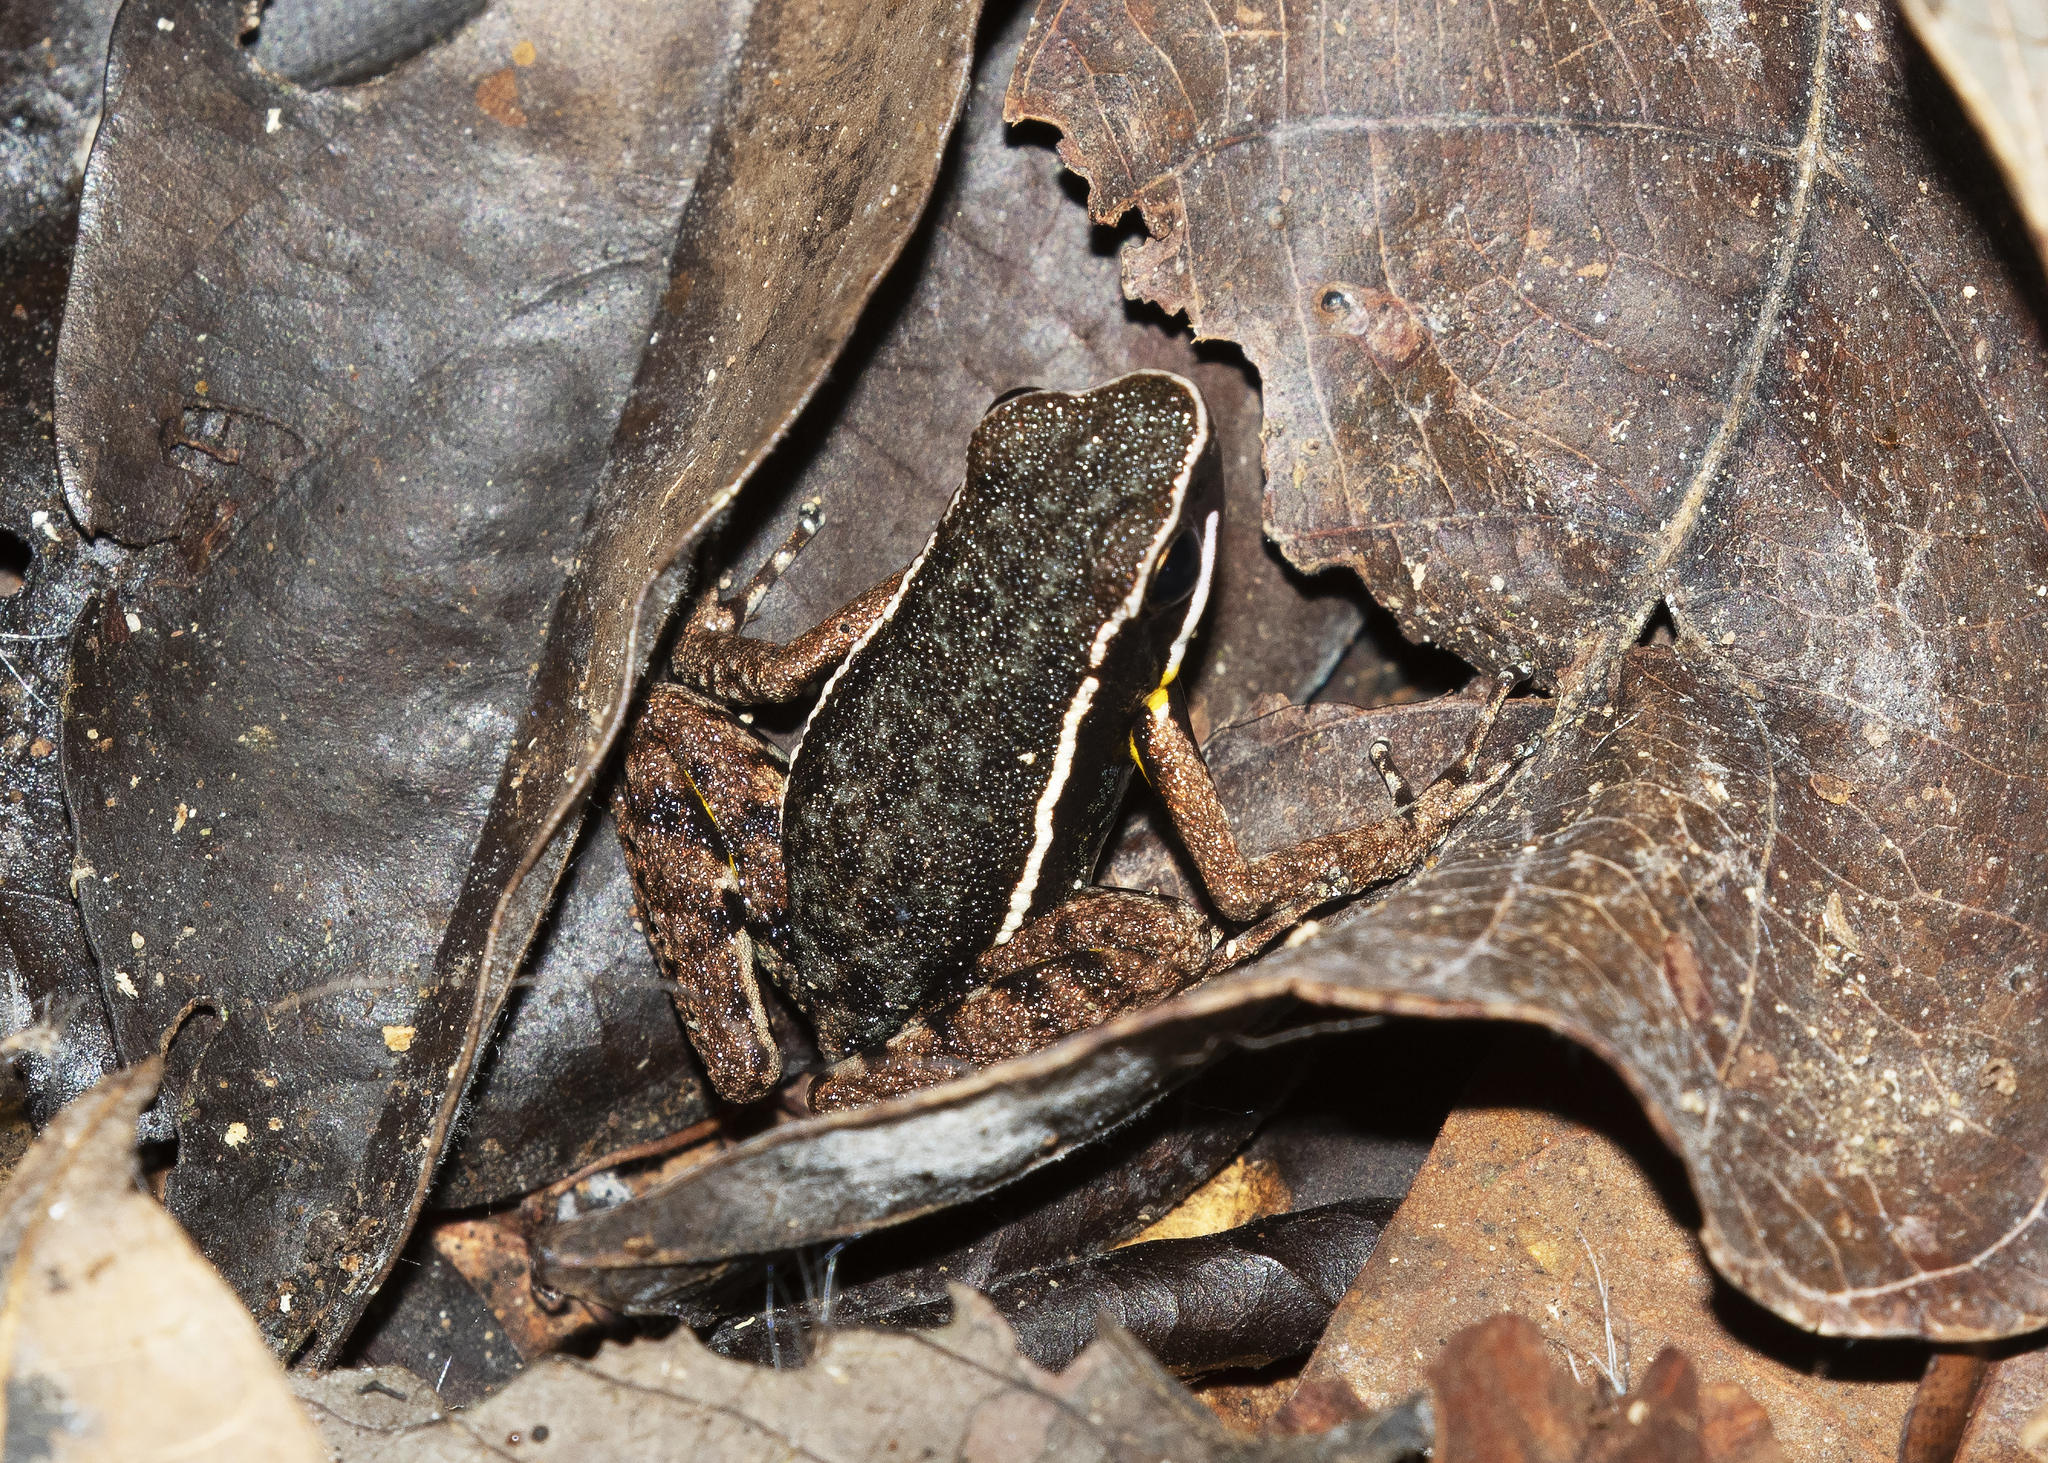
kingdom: Animalia
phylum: Chordata
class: Amphibia
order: Anura
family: Dendrobatidae
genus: Ameerega
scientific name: Ameerega hahneli
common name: Yurimaguas pioson frog
